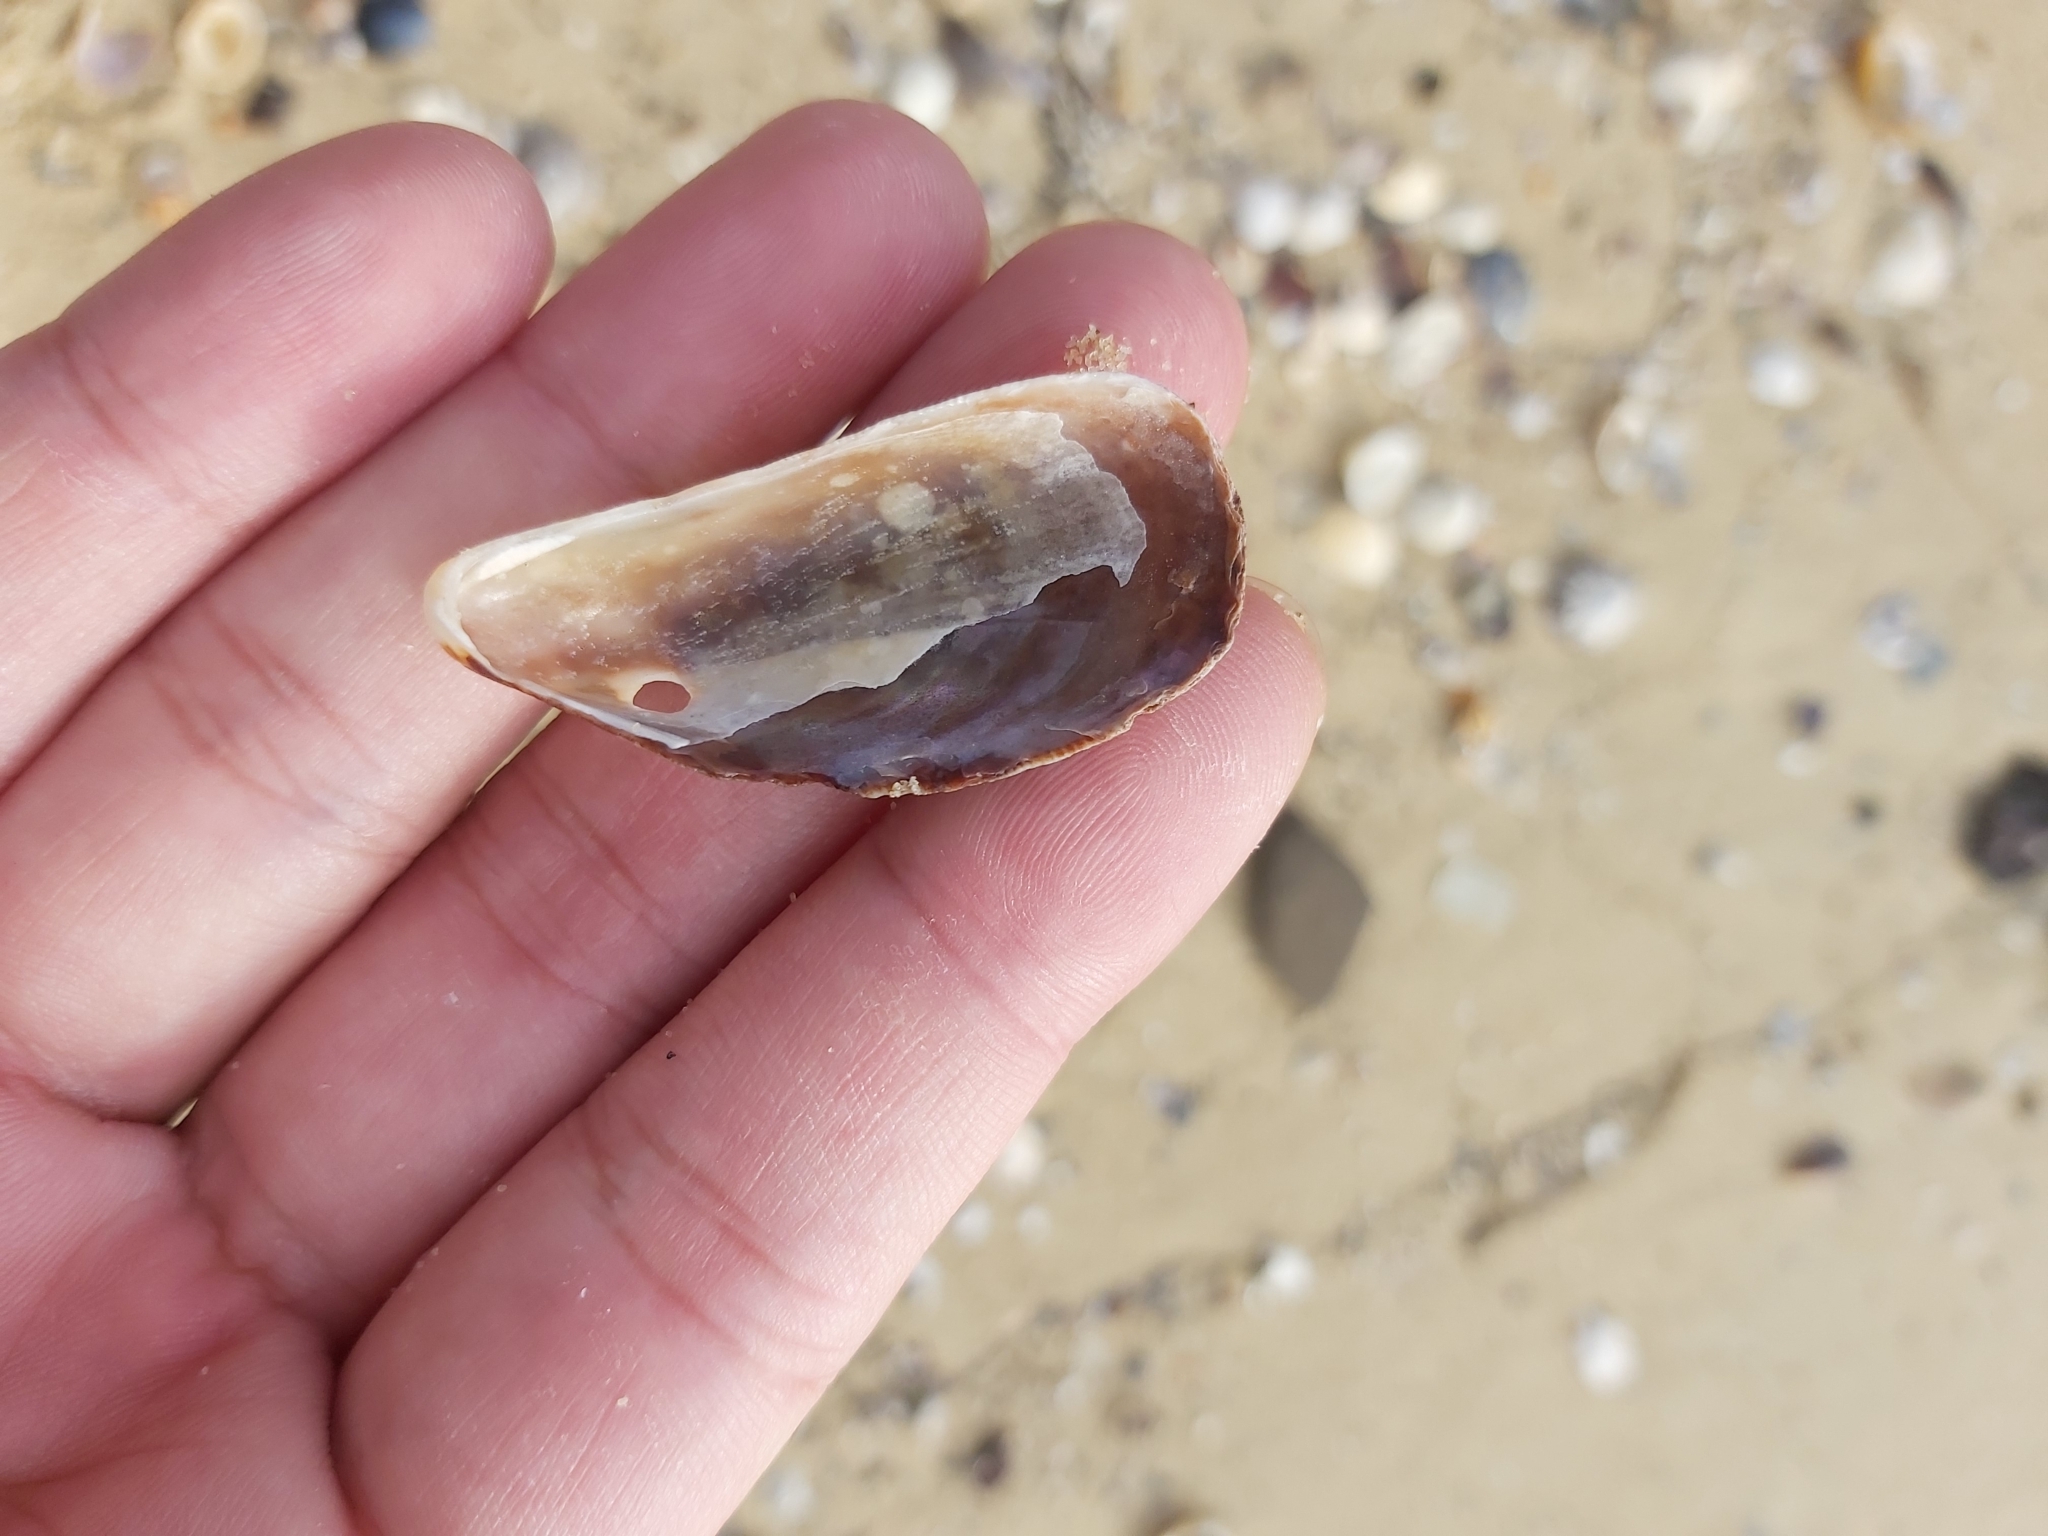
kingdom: Animalia
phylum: Mollusca
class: Bivalvia
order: Mytilida
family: Mytilidae
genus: Trichomya
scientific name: Trichomya hirsuta
